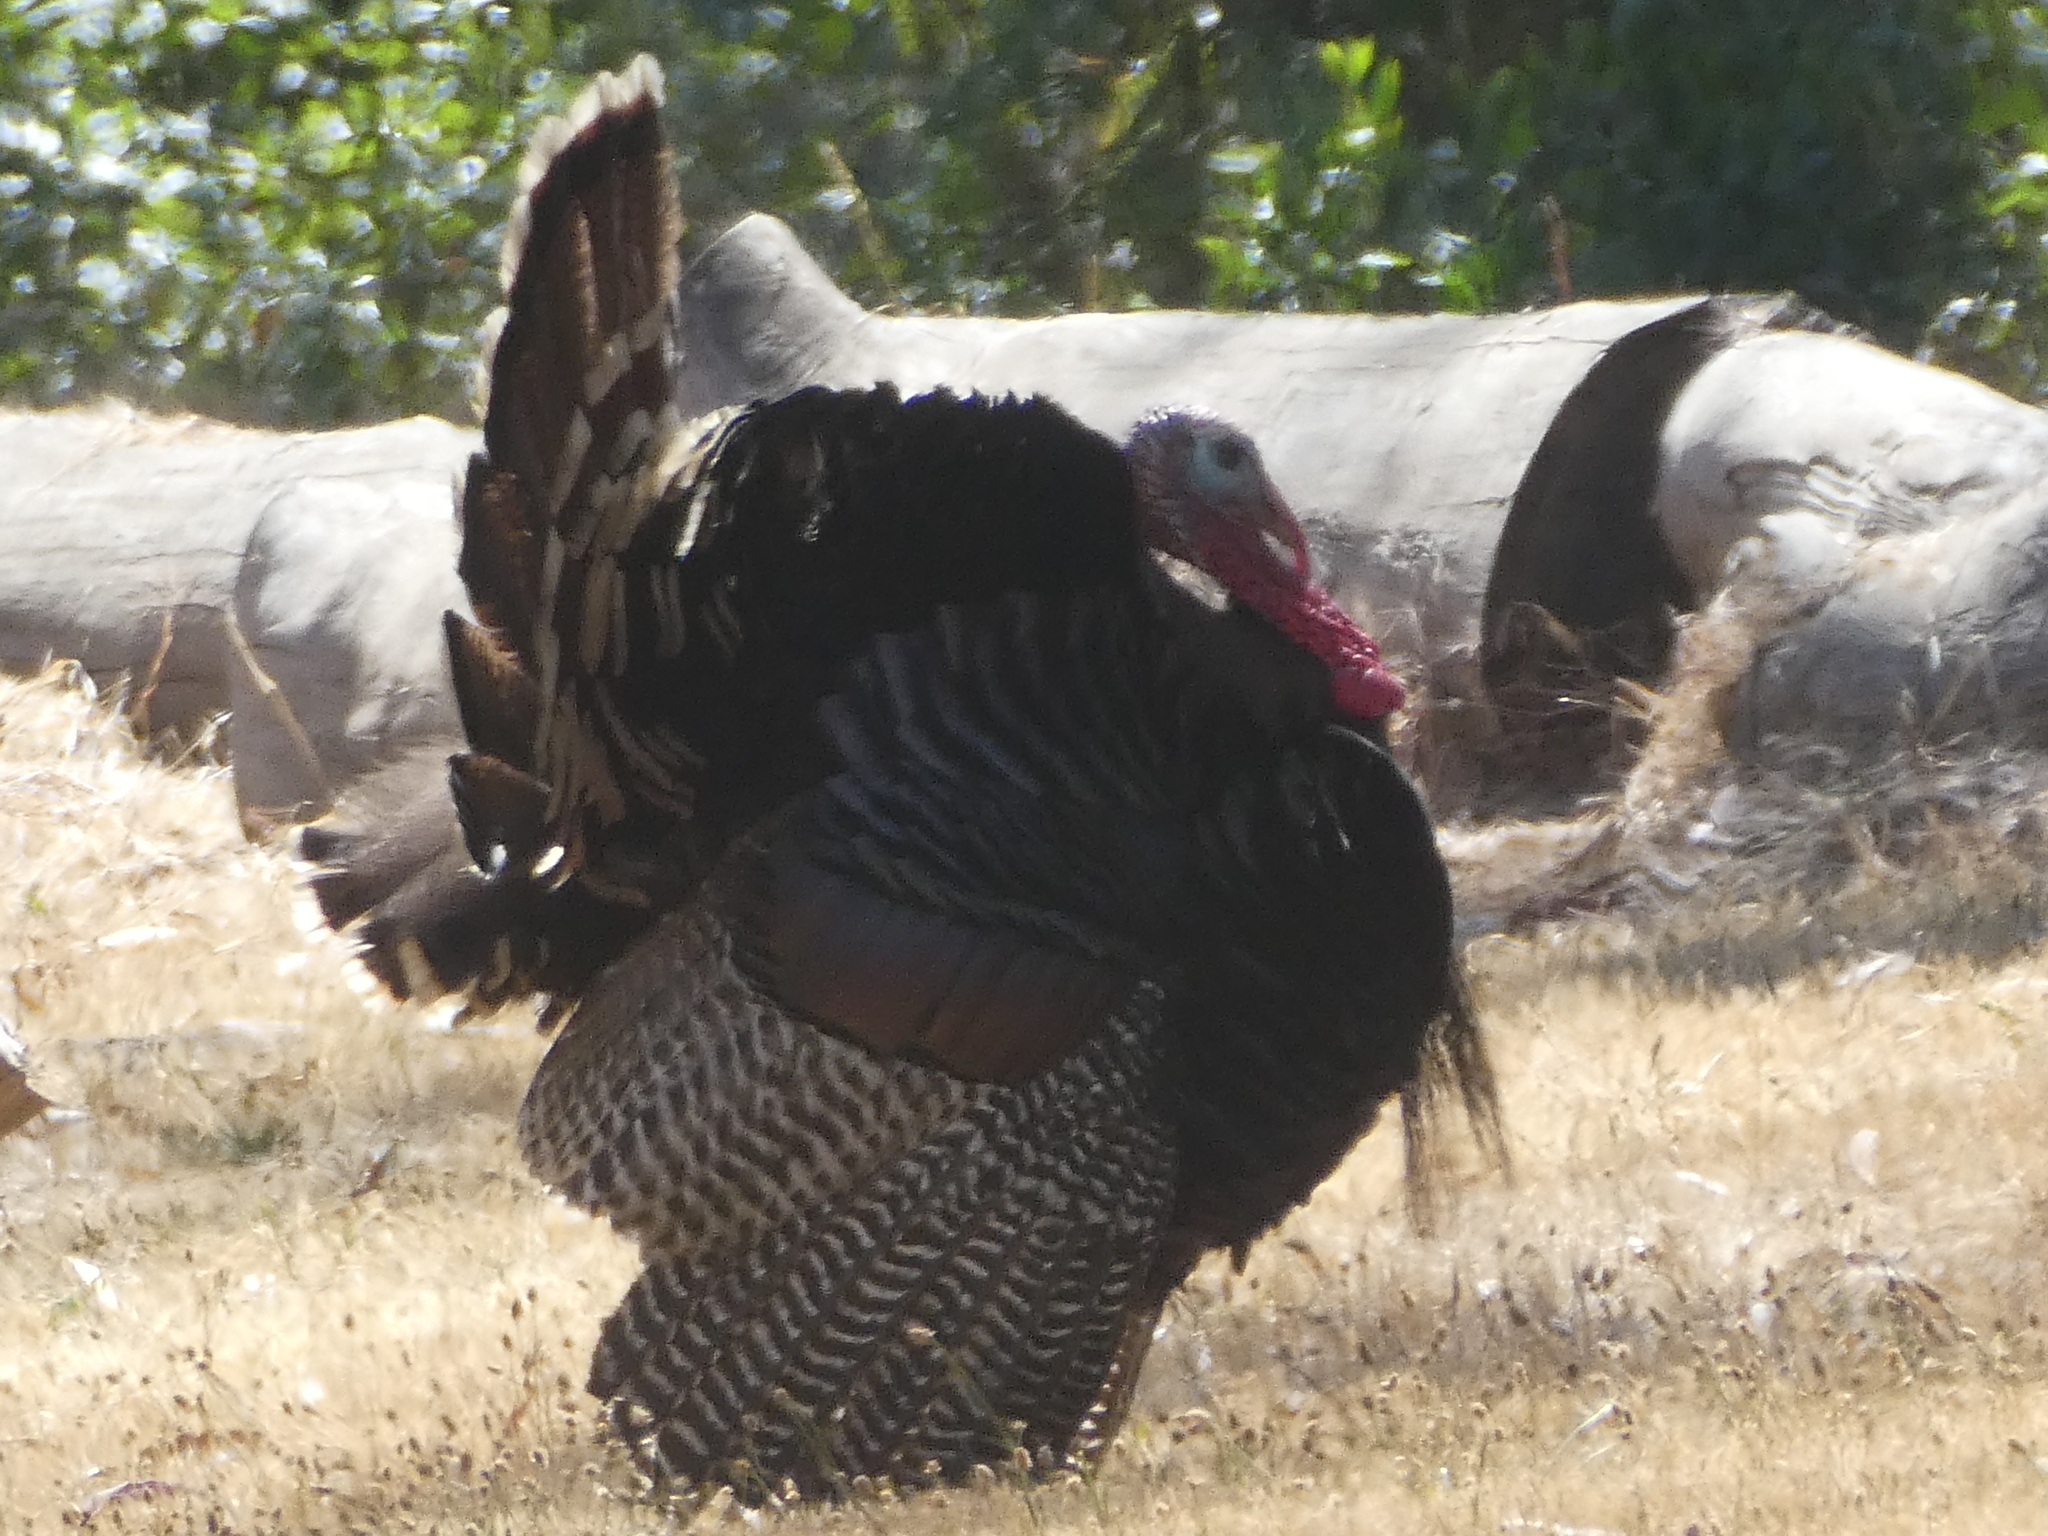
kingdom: Animalia
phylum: Chordata
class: Aves
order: Galliformes
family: Phasianidae
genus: Meleagris
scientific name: Meleagris gallopavo
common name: Wild turkey
